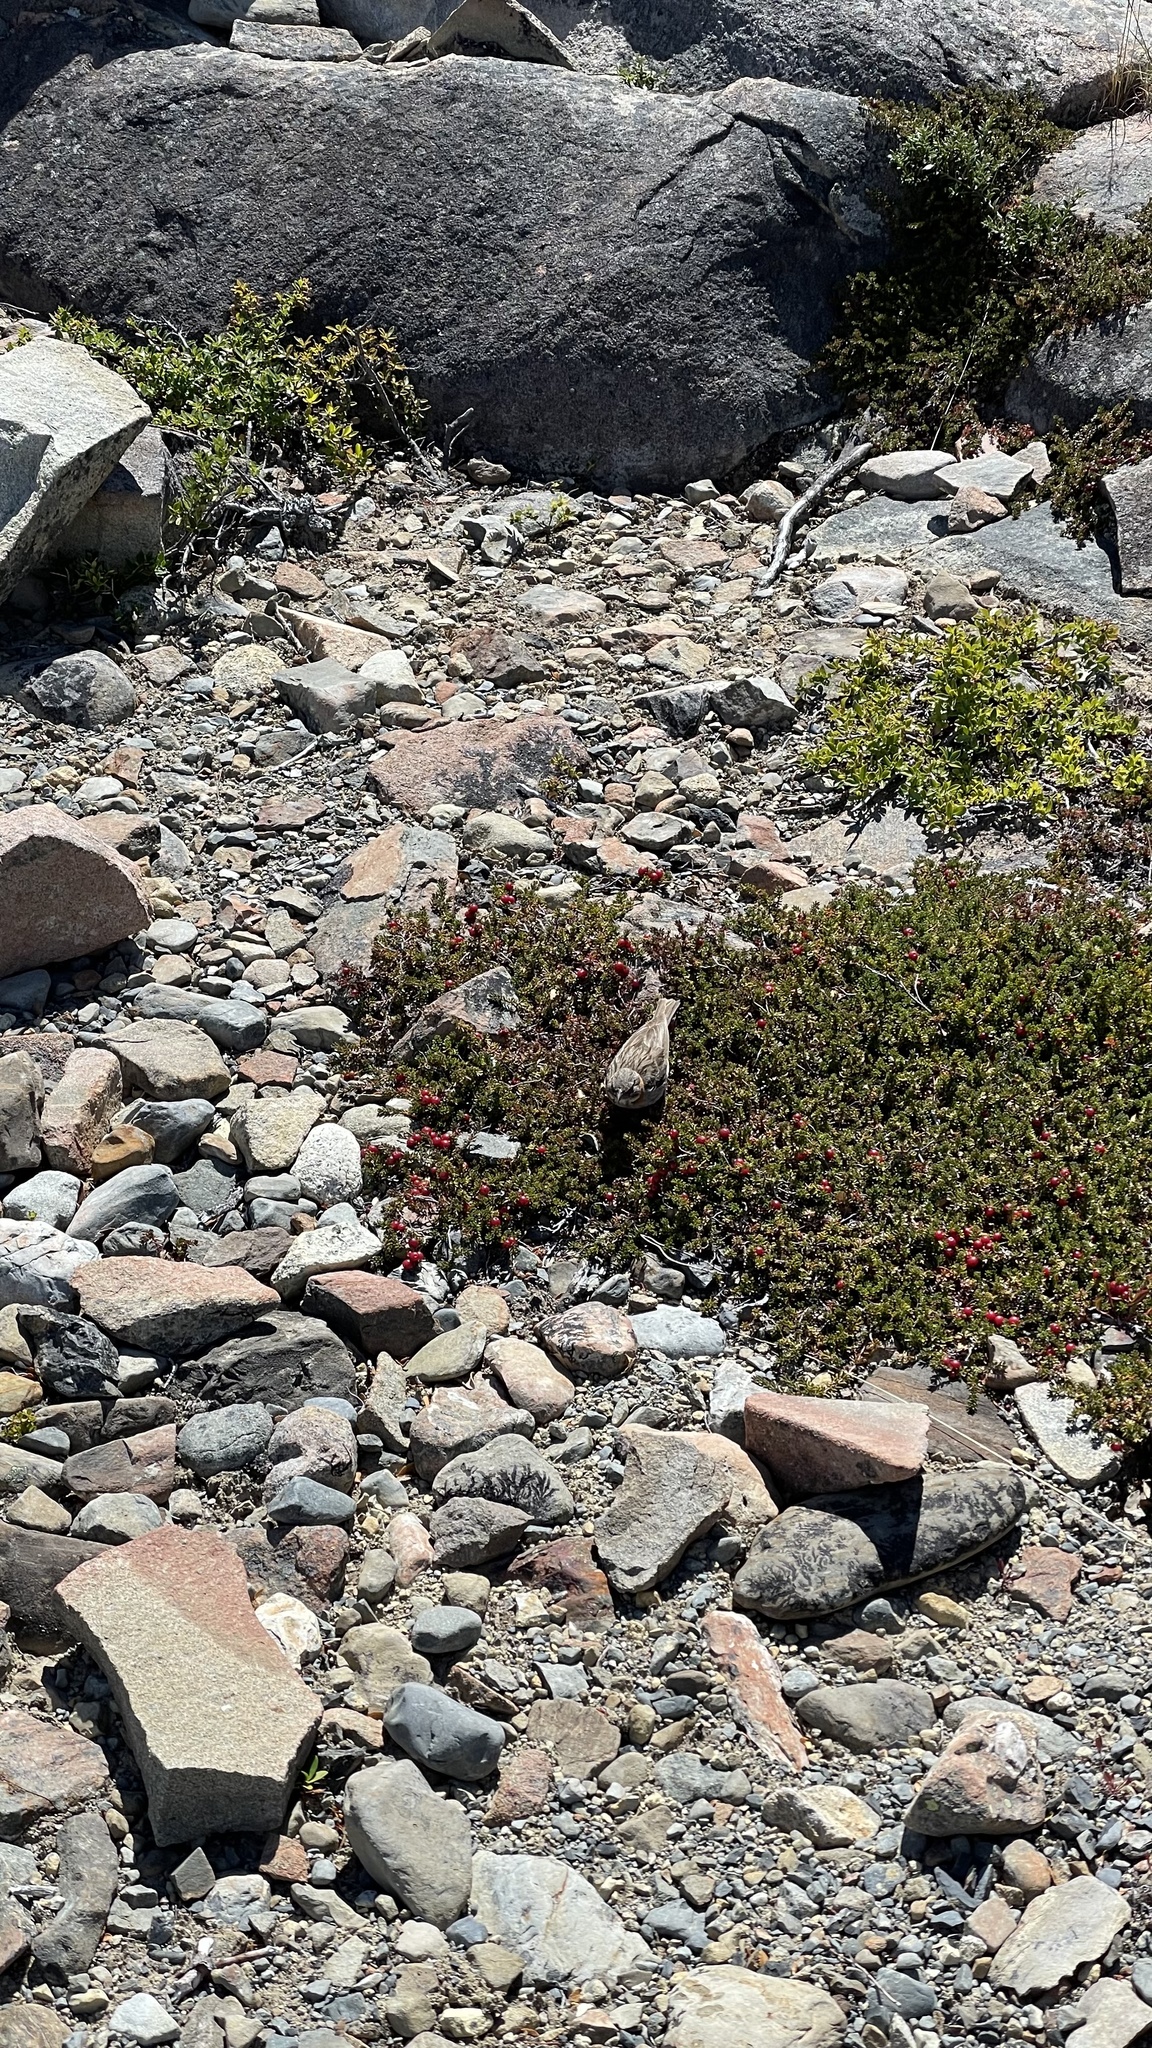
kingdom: Plantae
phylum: Tracheophyta
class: Magnoliopsida
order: Ericales
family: Ericaceae
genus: Empetrum
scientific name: Empetrum rubrum
